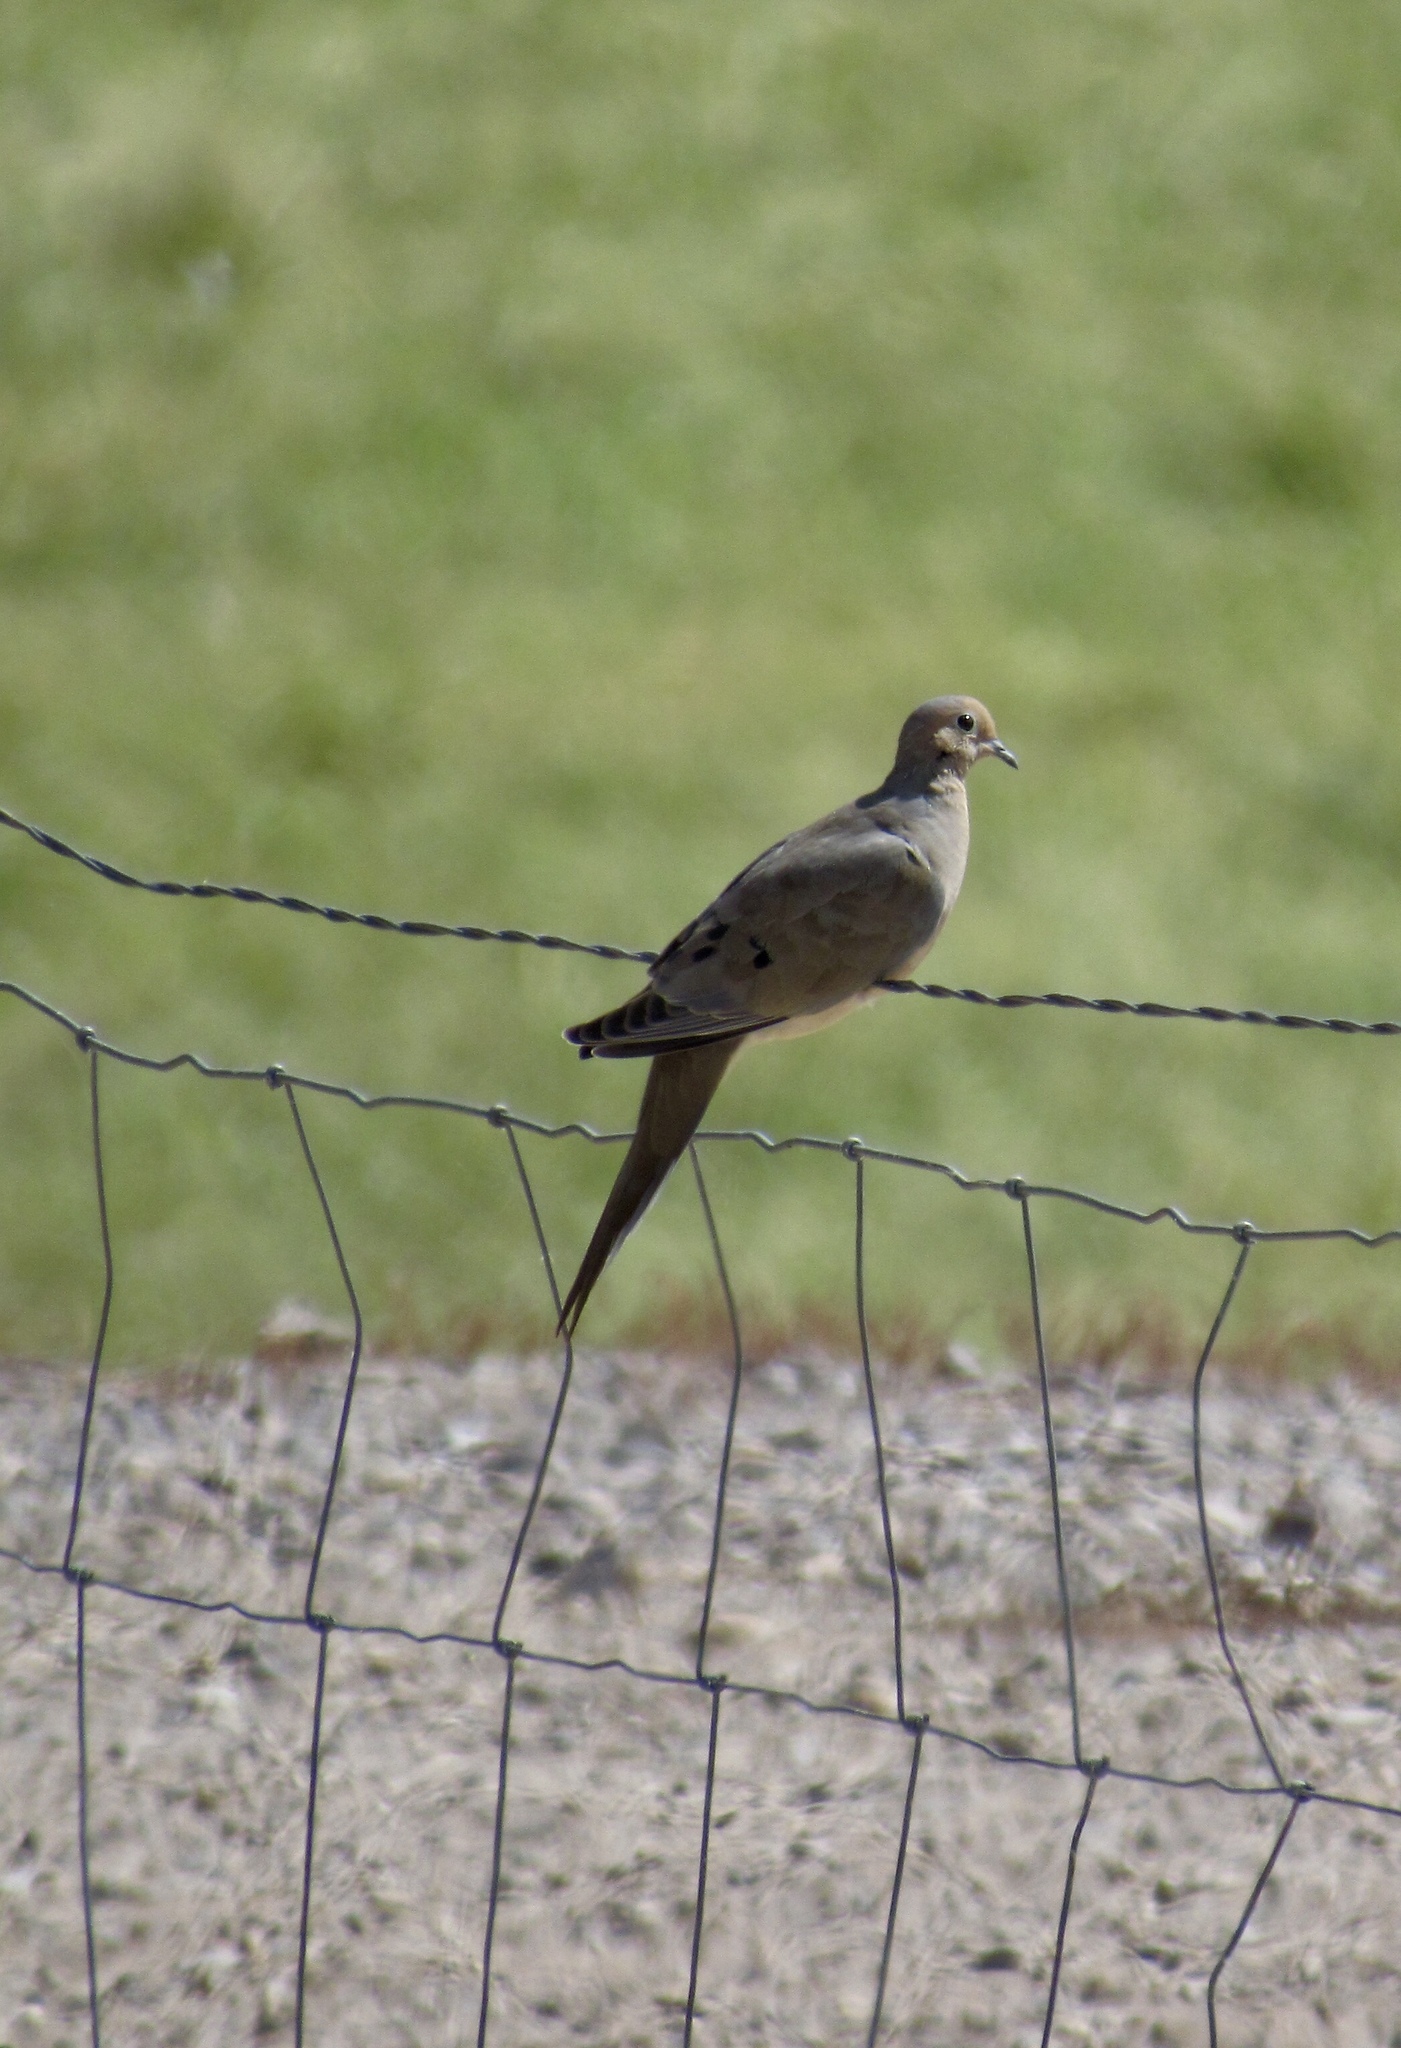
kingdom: Animalia
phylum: Chordata
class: Aves
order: Columbiformes
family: Columbidae
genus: Zenaida
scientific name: Zenaida macroura
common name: Mourning dove
